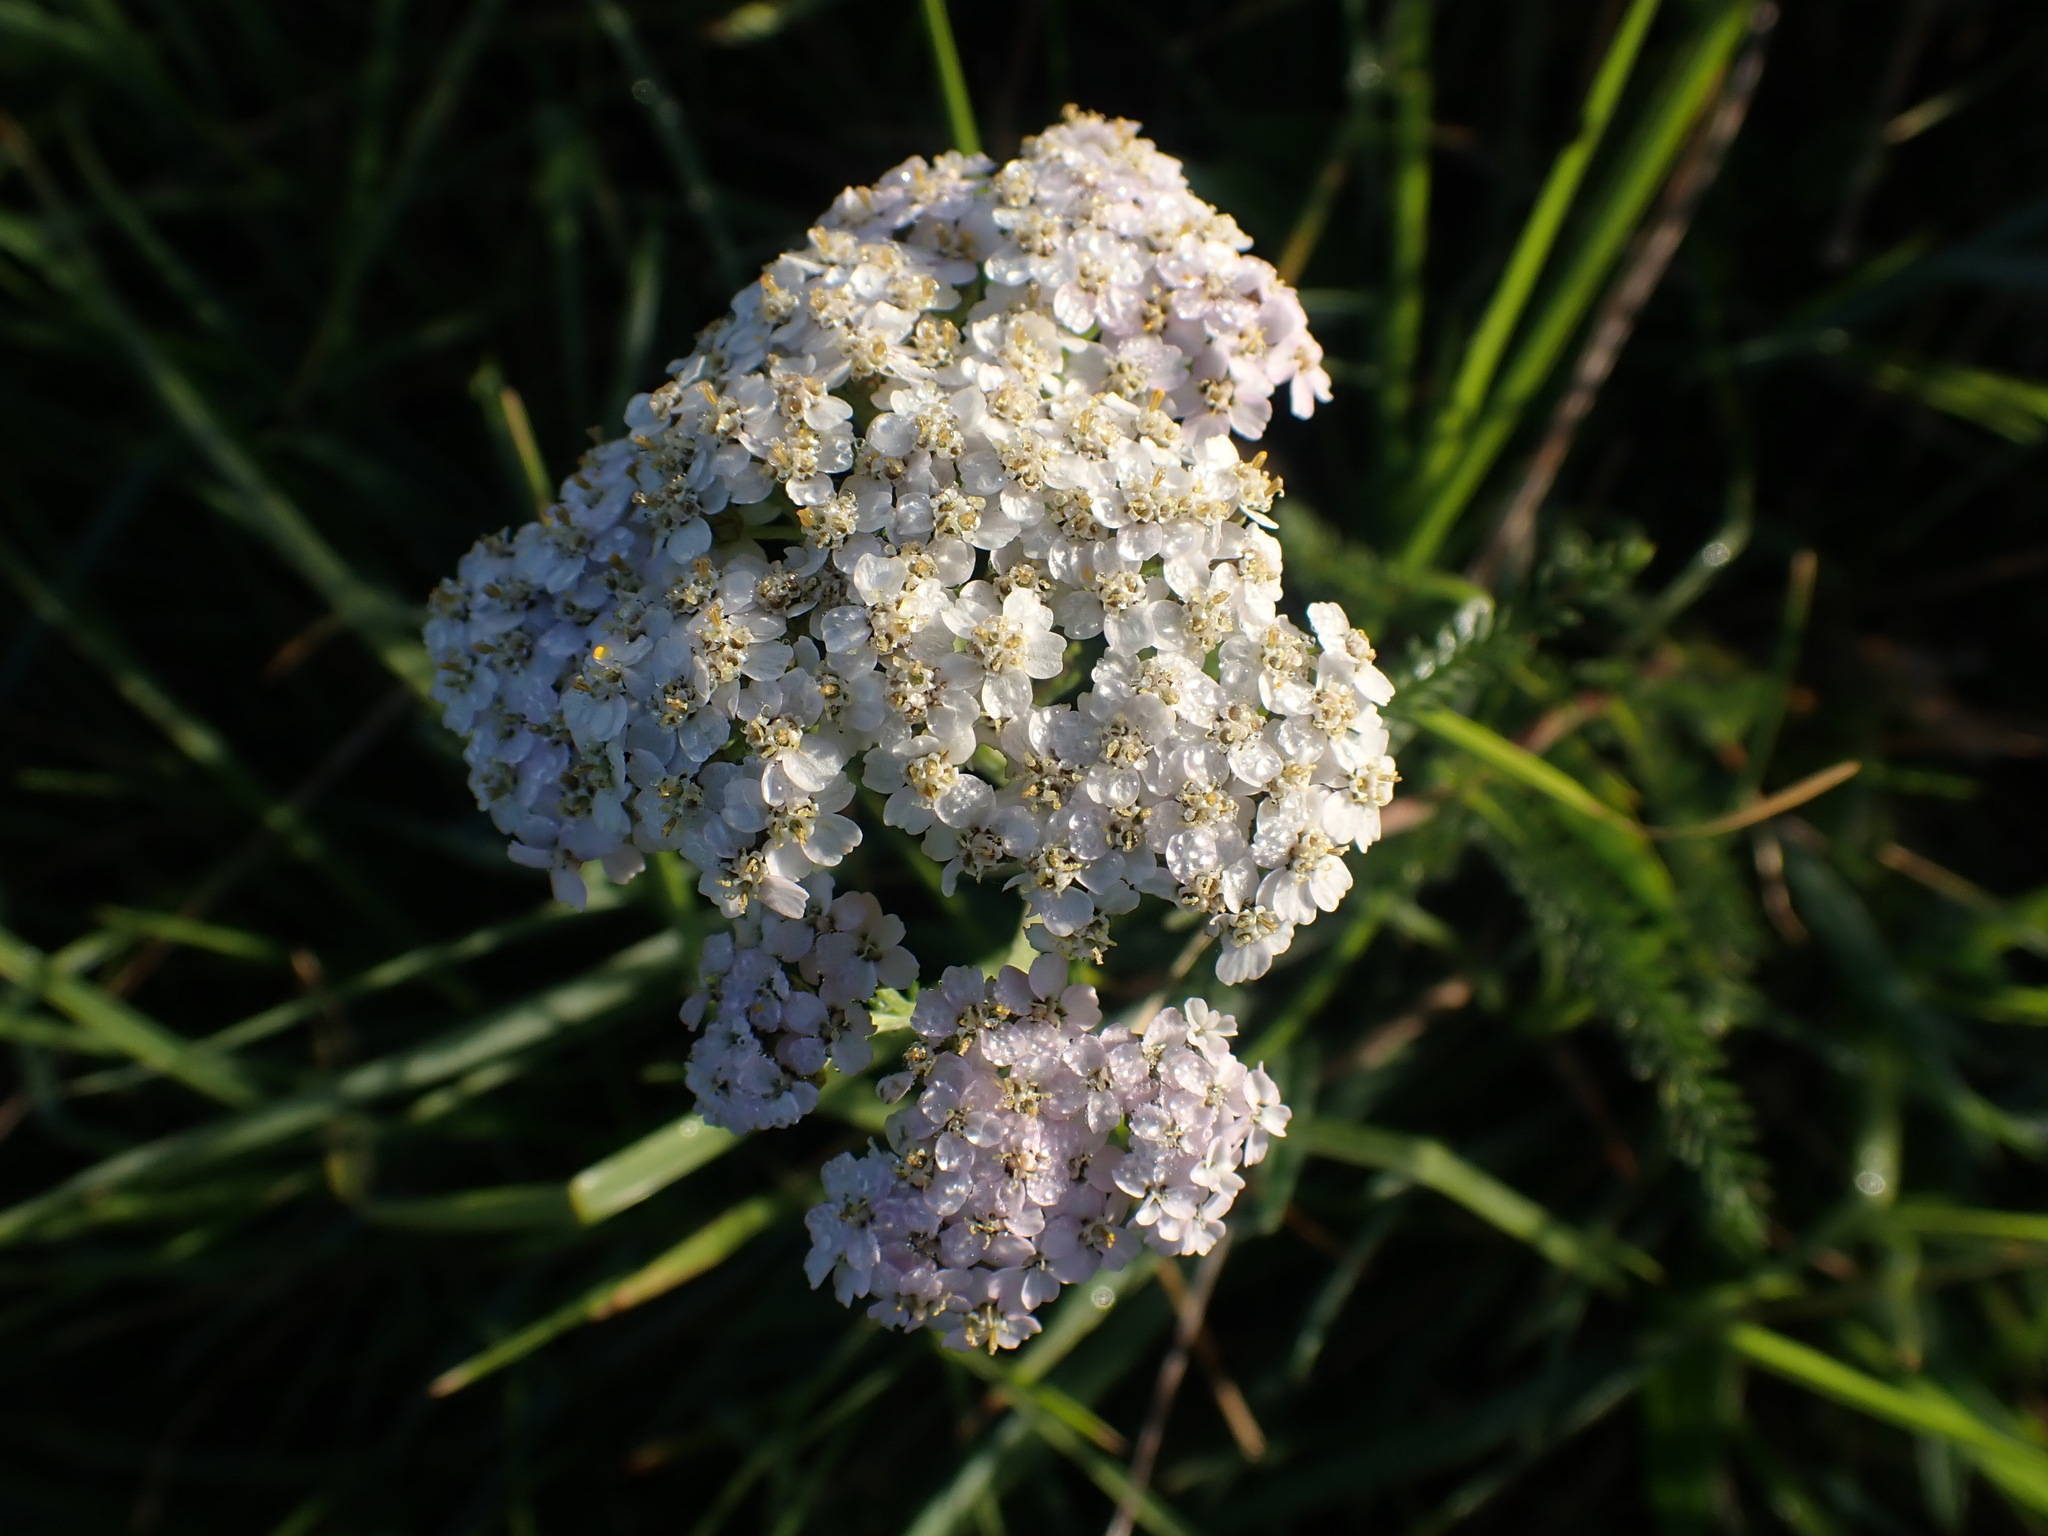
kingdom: Plantae
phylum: Tracheophyta
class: Magnoliopsida
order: Asterales
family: Asteraceae
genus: Achillea
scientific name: Achillea millefolium
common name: Yarrow
